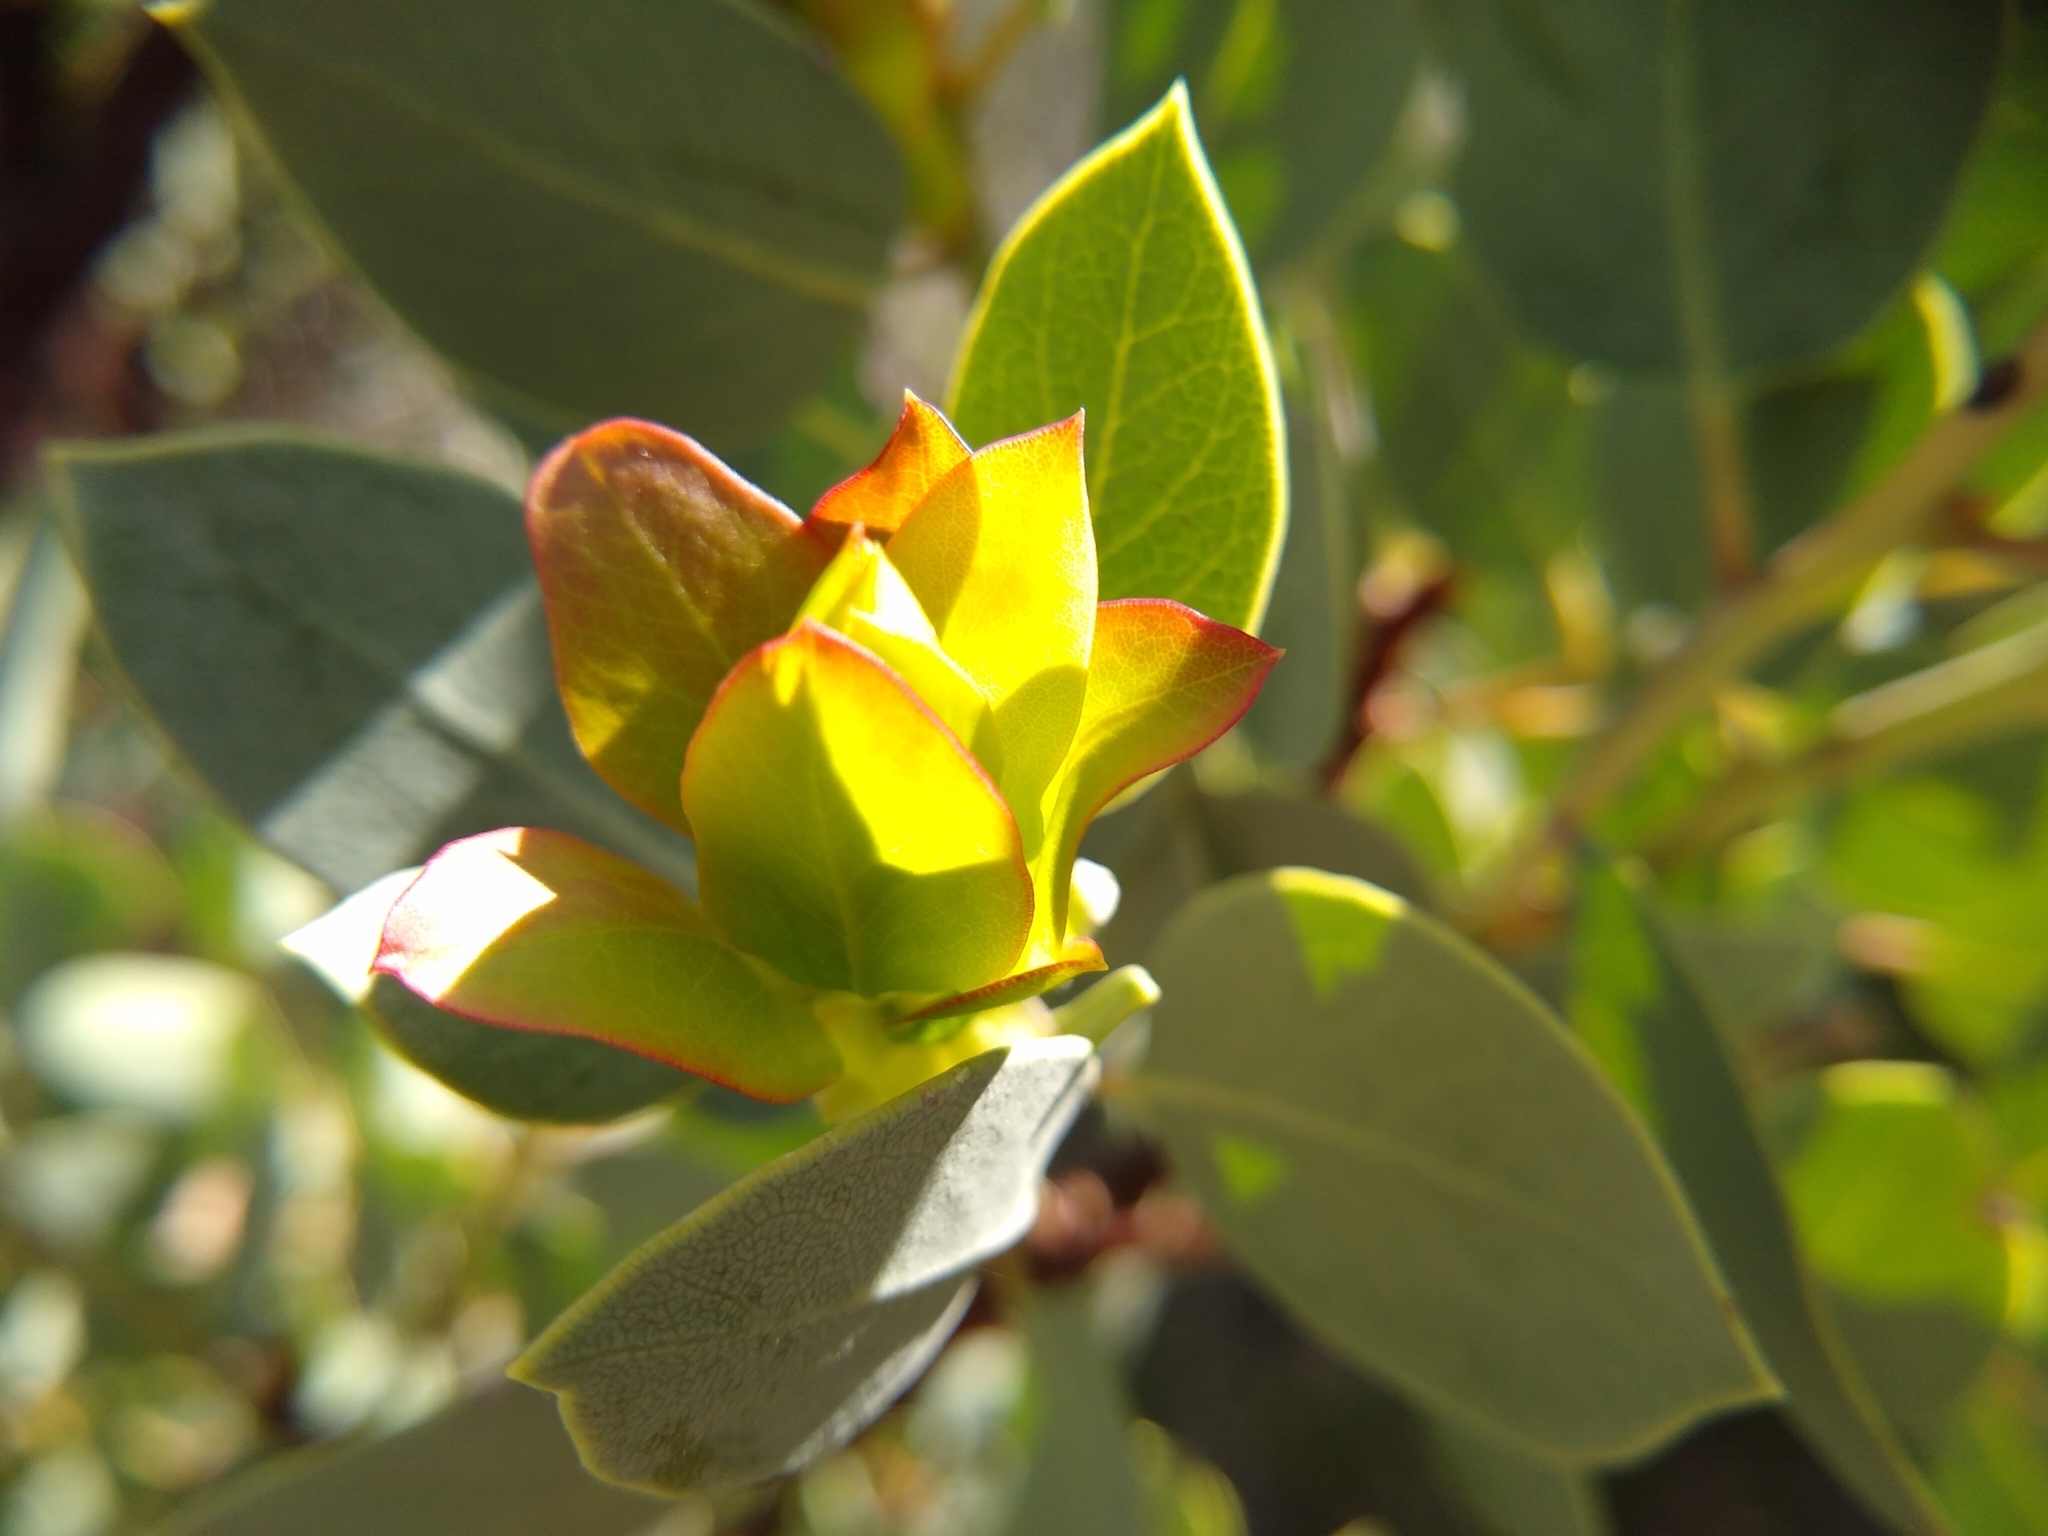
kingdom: Plantae
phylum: Tracheophyta
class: Magnoliopsida
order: Ericales
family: Ericaceae
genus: Arctostaphylos
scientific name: Arctostaphylos glauca
